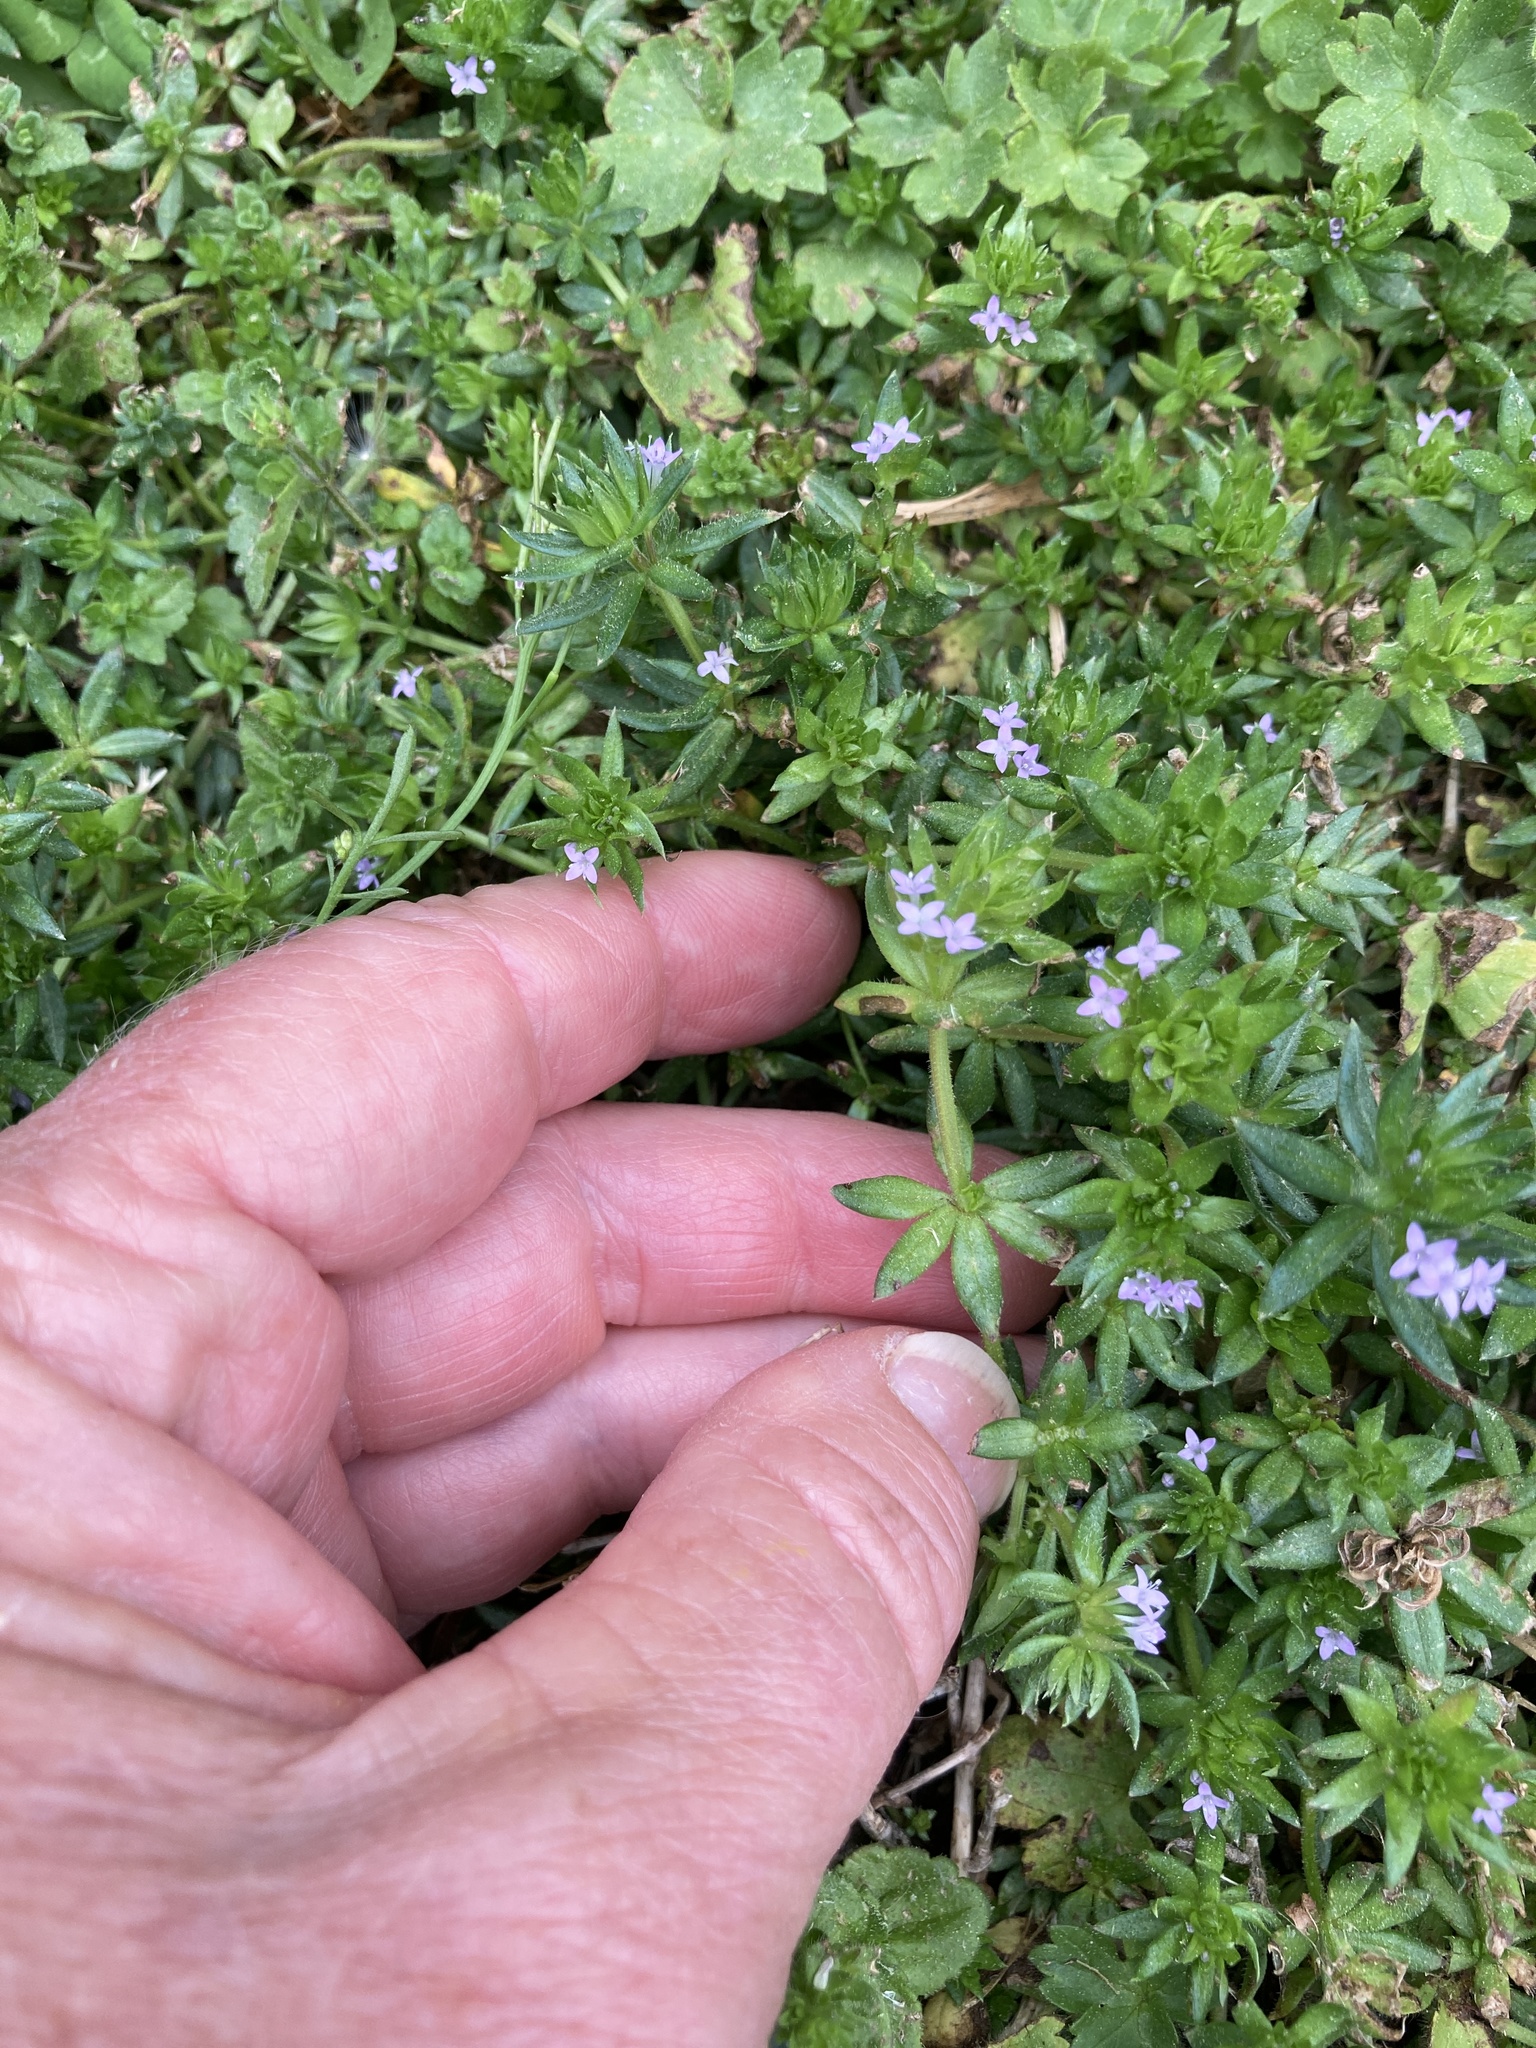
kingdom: Plantae
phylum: Tracheophyta
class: Magnoliopsida
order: Gentianales
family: Rubiaceae
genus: Sherardia
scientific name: Sherardia arvensis
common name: Field madder
